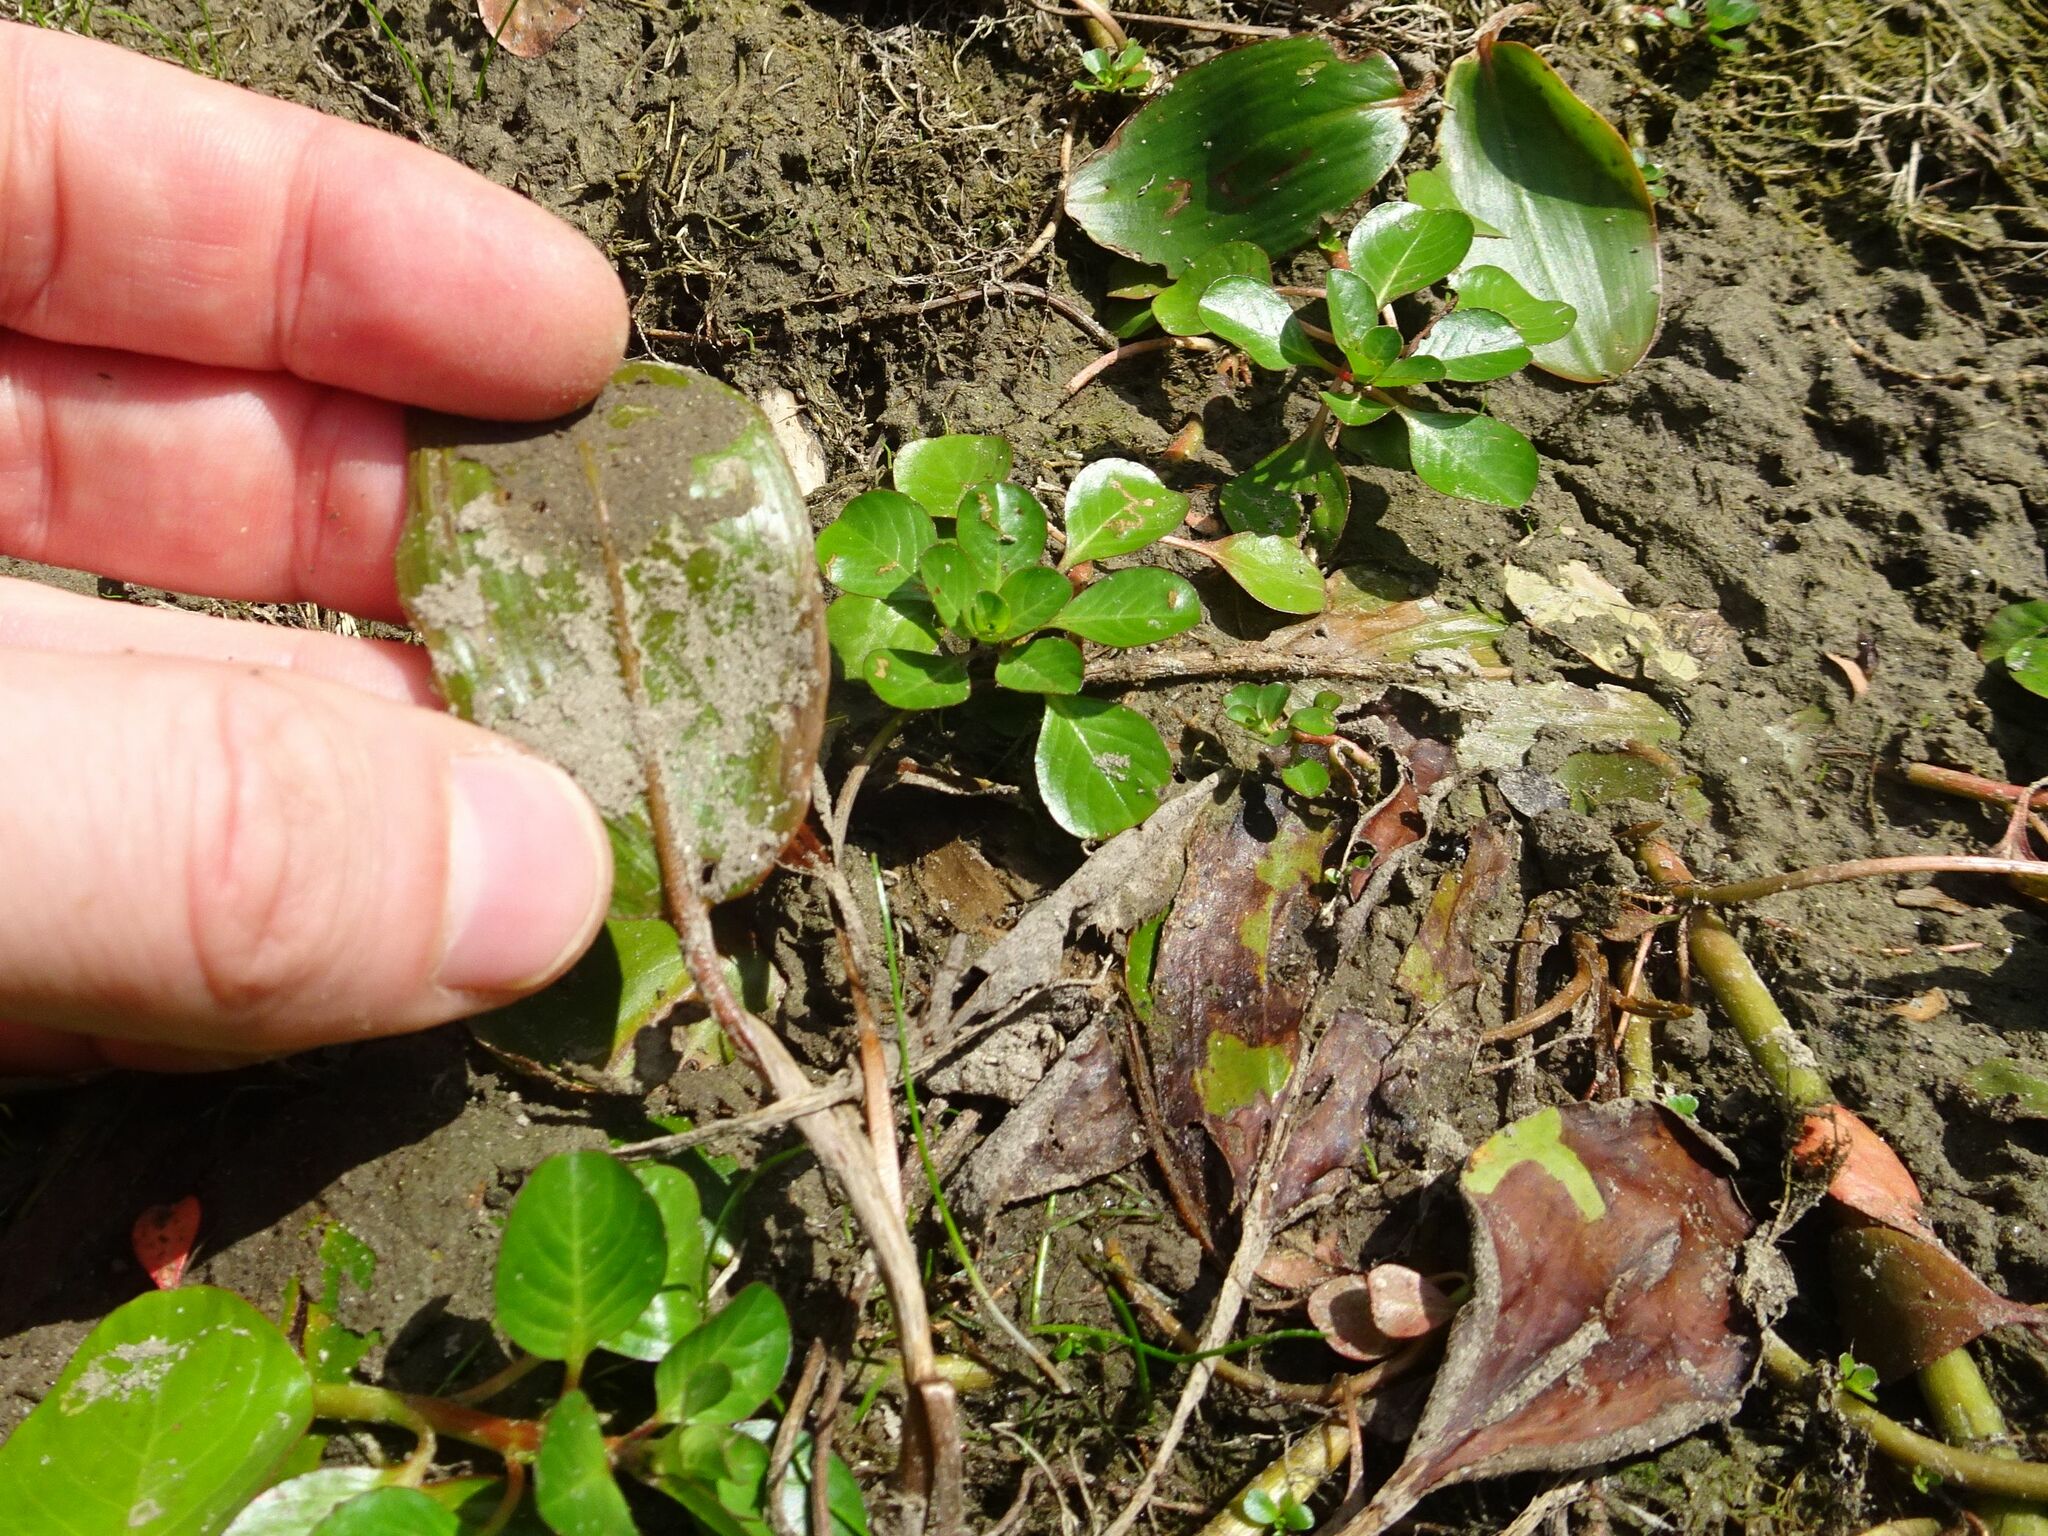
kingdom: Plantae
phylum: Tracheophyta
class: Liliopsida
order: Alismatales
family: Potamogetonaceae
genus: Potamogeton
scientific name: Potamogeton natans
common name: Broad-leaved pondweed
